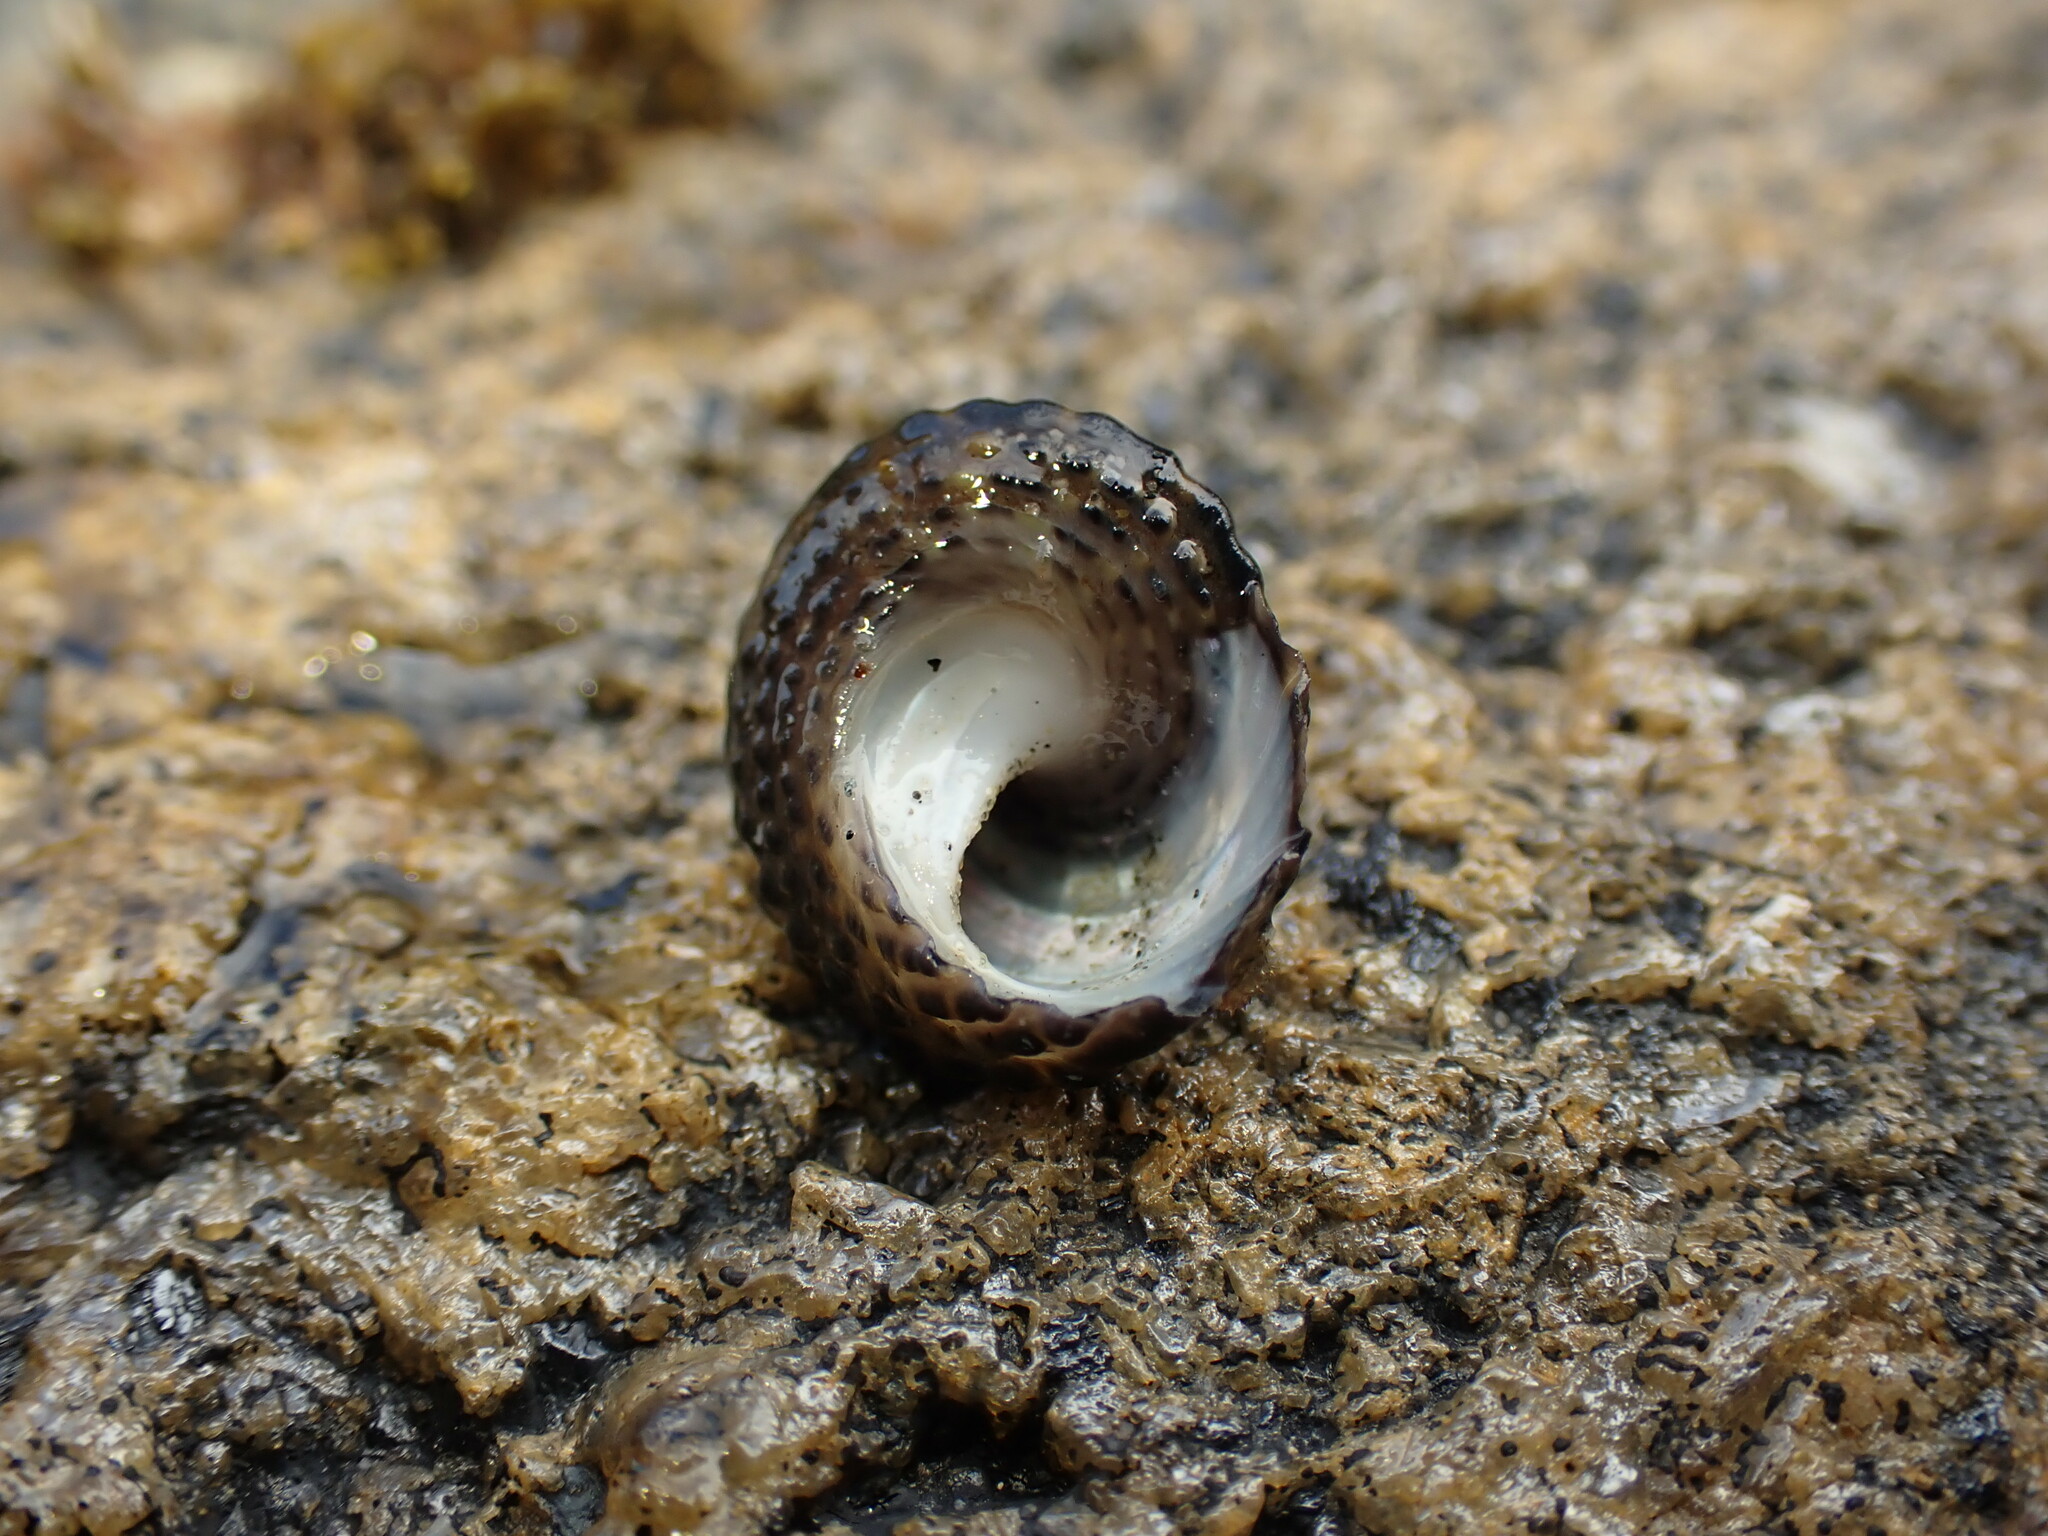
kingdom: Animalia
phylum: Mollusca
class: Gastropoda
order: Trochida
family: Trochidae
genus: Diloma
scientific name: Diloma bicanaliculatum
